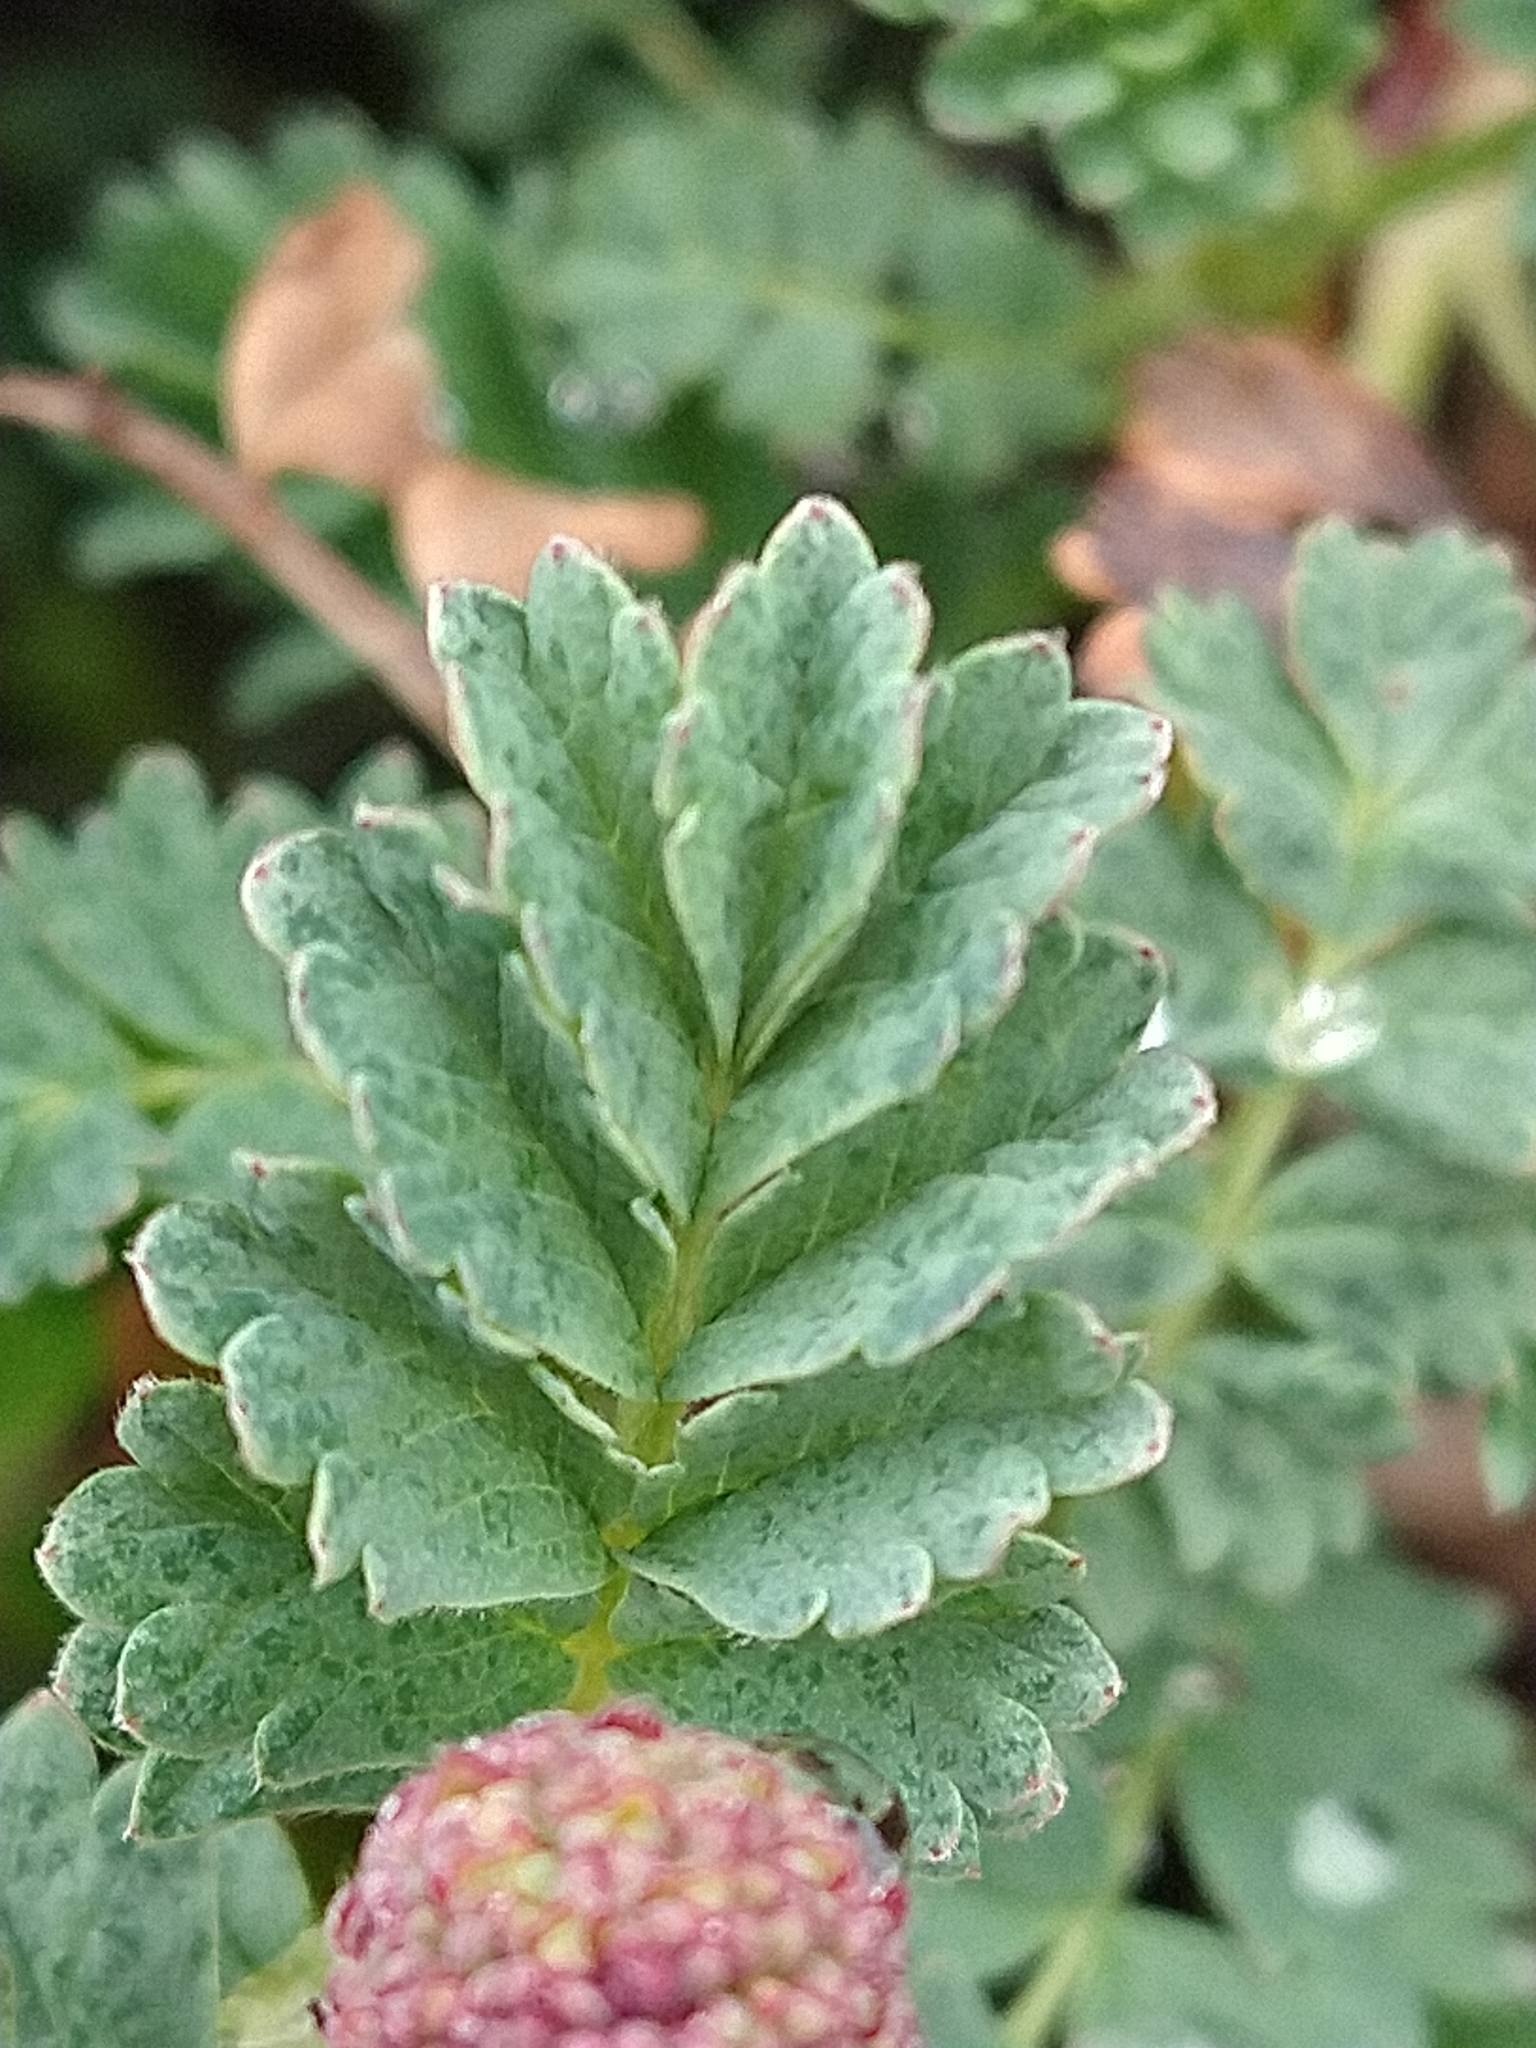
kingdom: Plantae
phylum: Tracheophyta
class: Magnoliopsida
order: Rosales
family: Rosaceae
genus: Acaena
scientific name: Acaena magellanica
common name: New zealand burr
